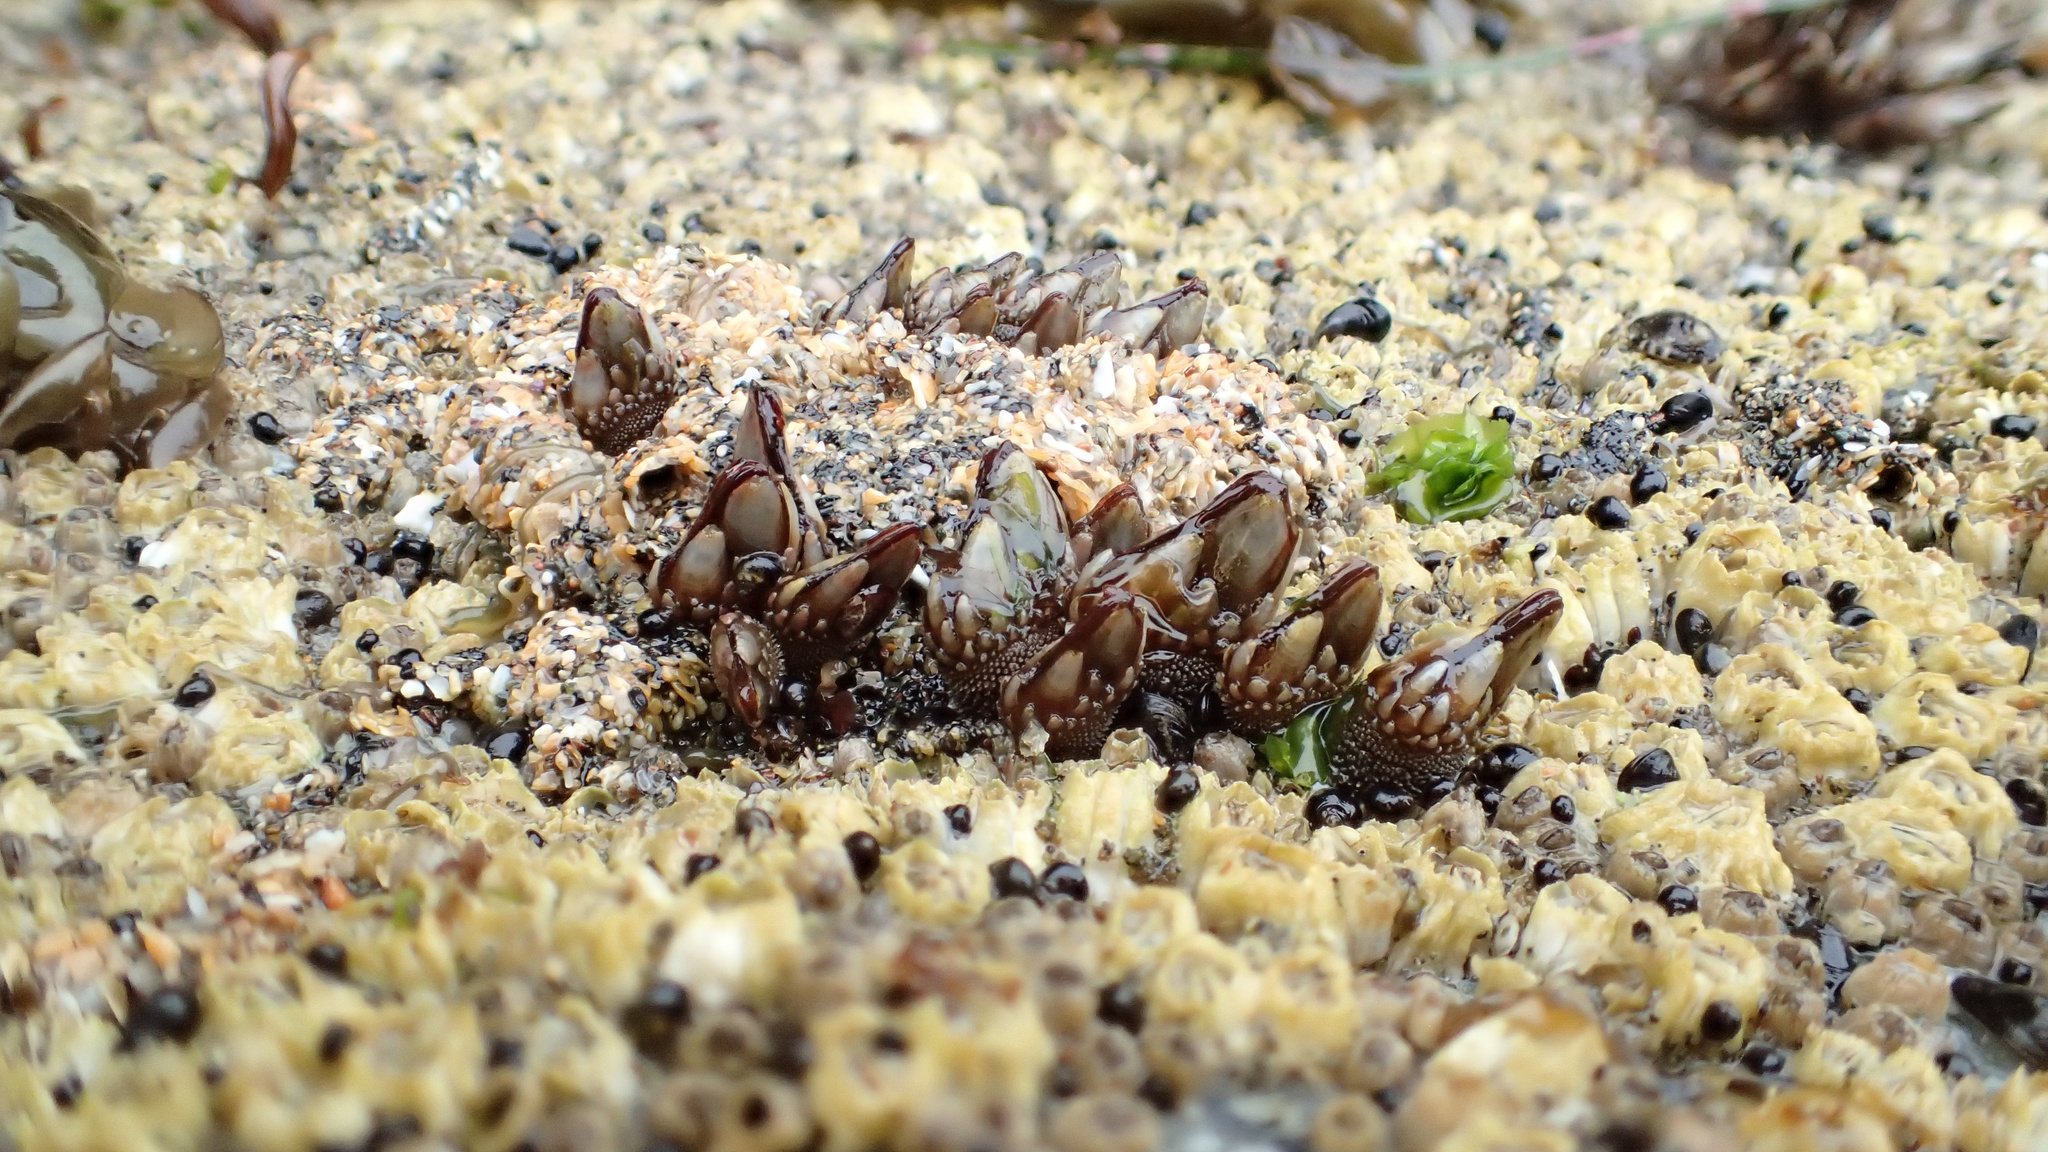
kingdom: Animalia
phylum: Arthropoda
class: Maxillopoda
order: Pedunculata
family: Pollicipedidae
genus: Pollicipes
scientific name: Pollicipes polymerus
